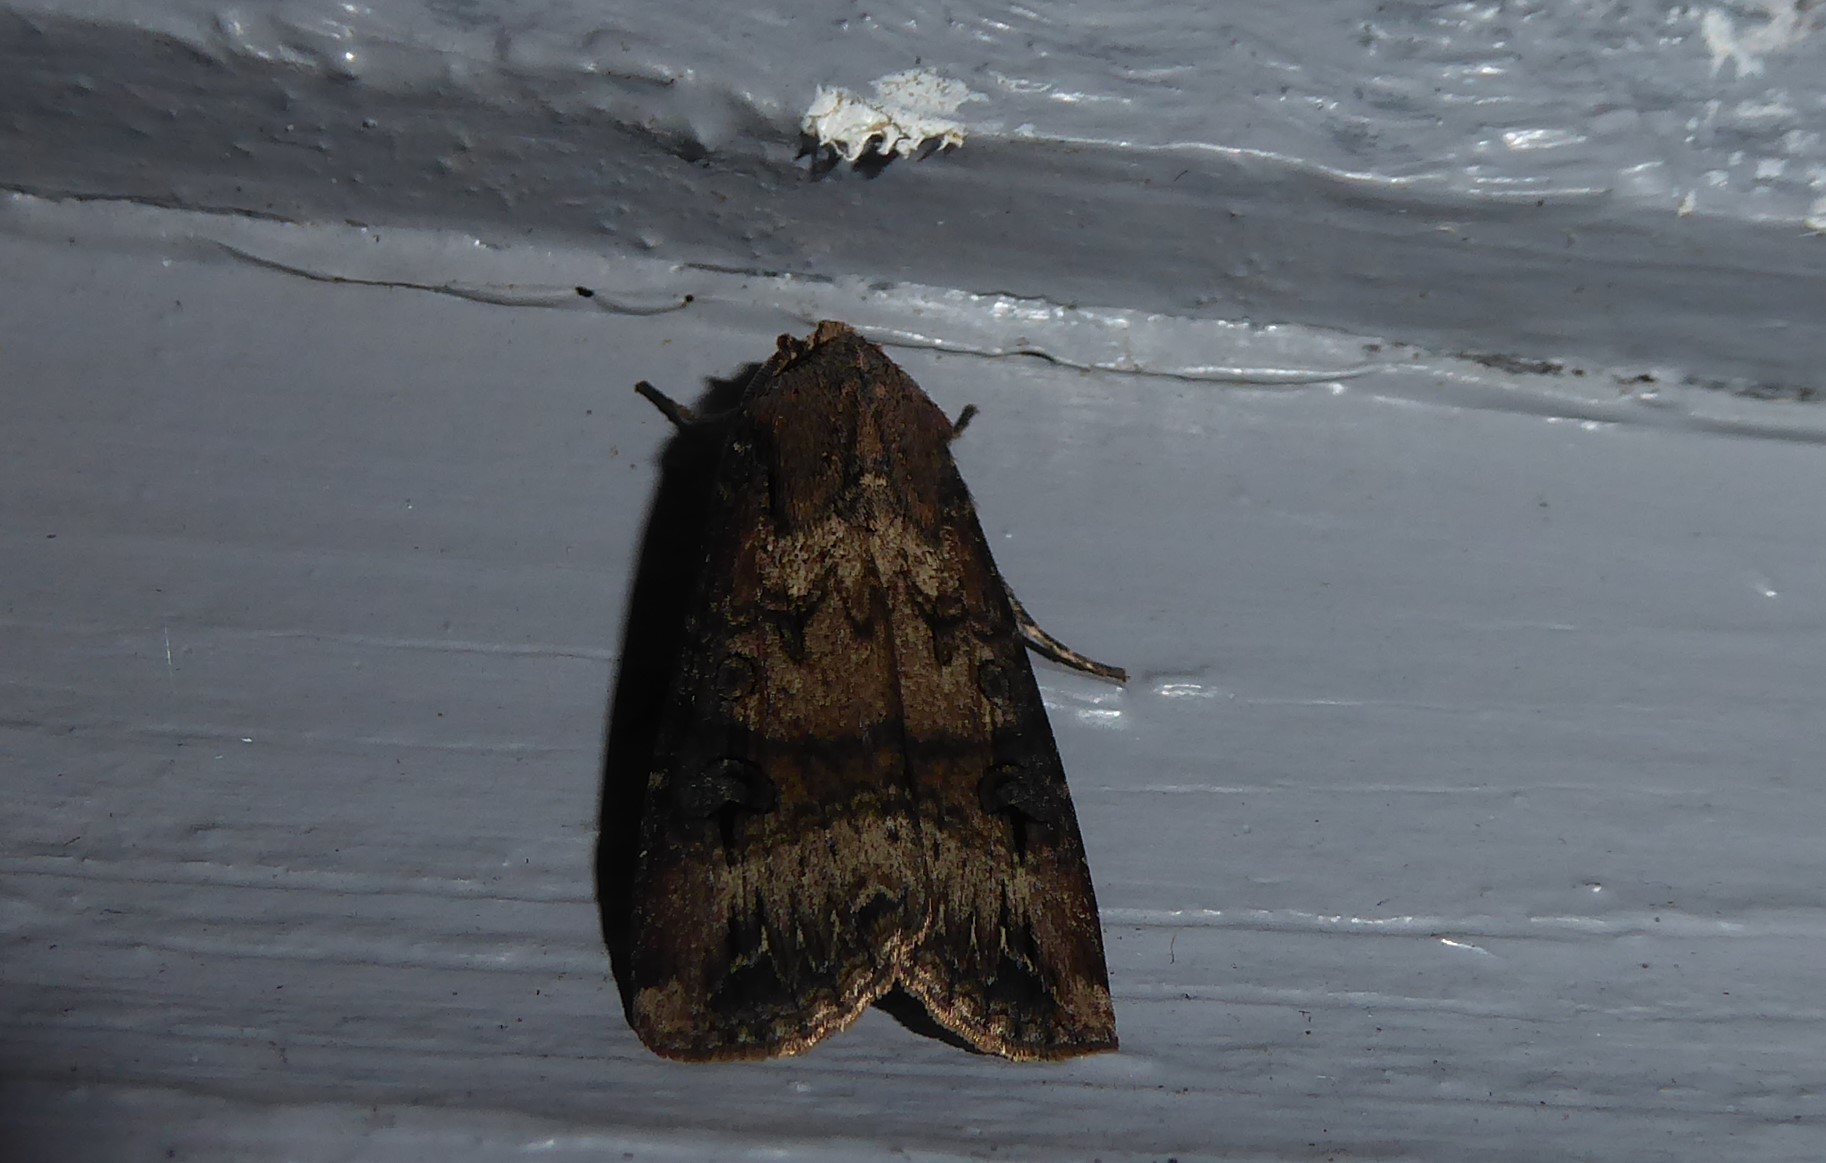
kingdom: Animalia
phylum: Arthropoda
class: Insecta
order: Lepidoptera
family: Noctuidae
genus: Agrotis
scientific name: Agrotis ipsilon
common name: Dark sword-grass
